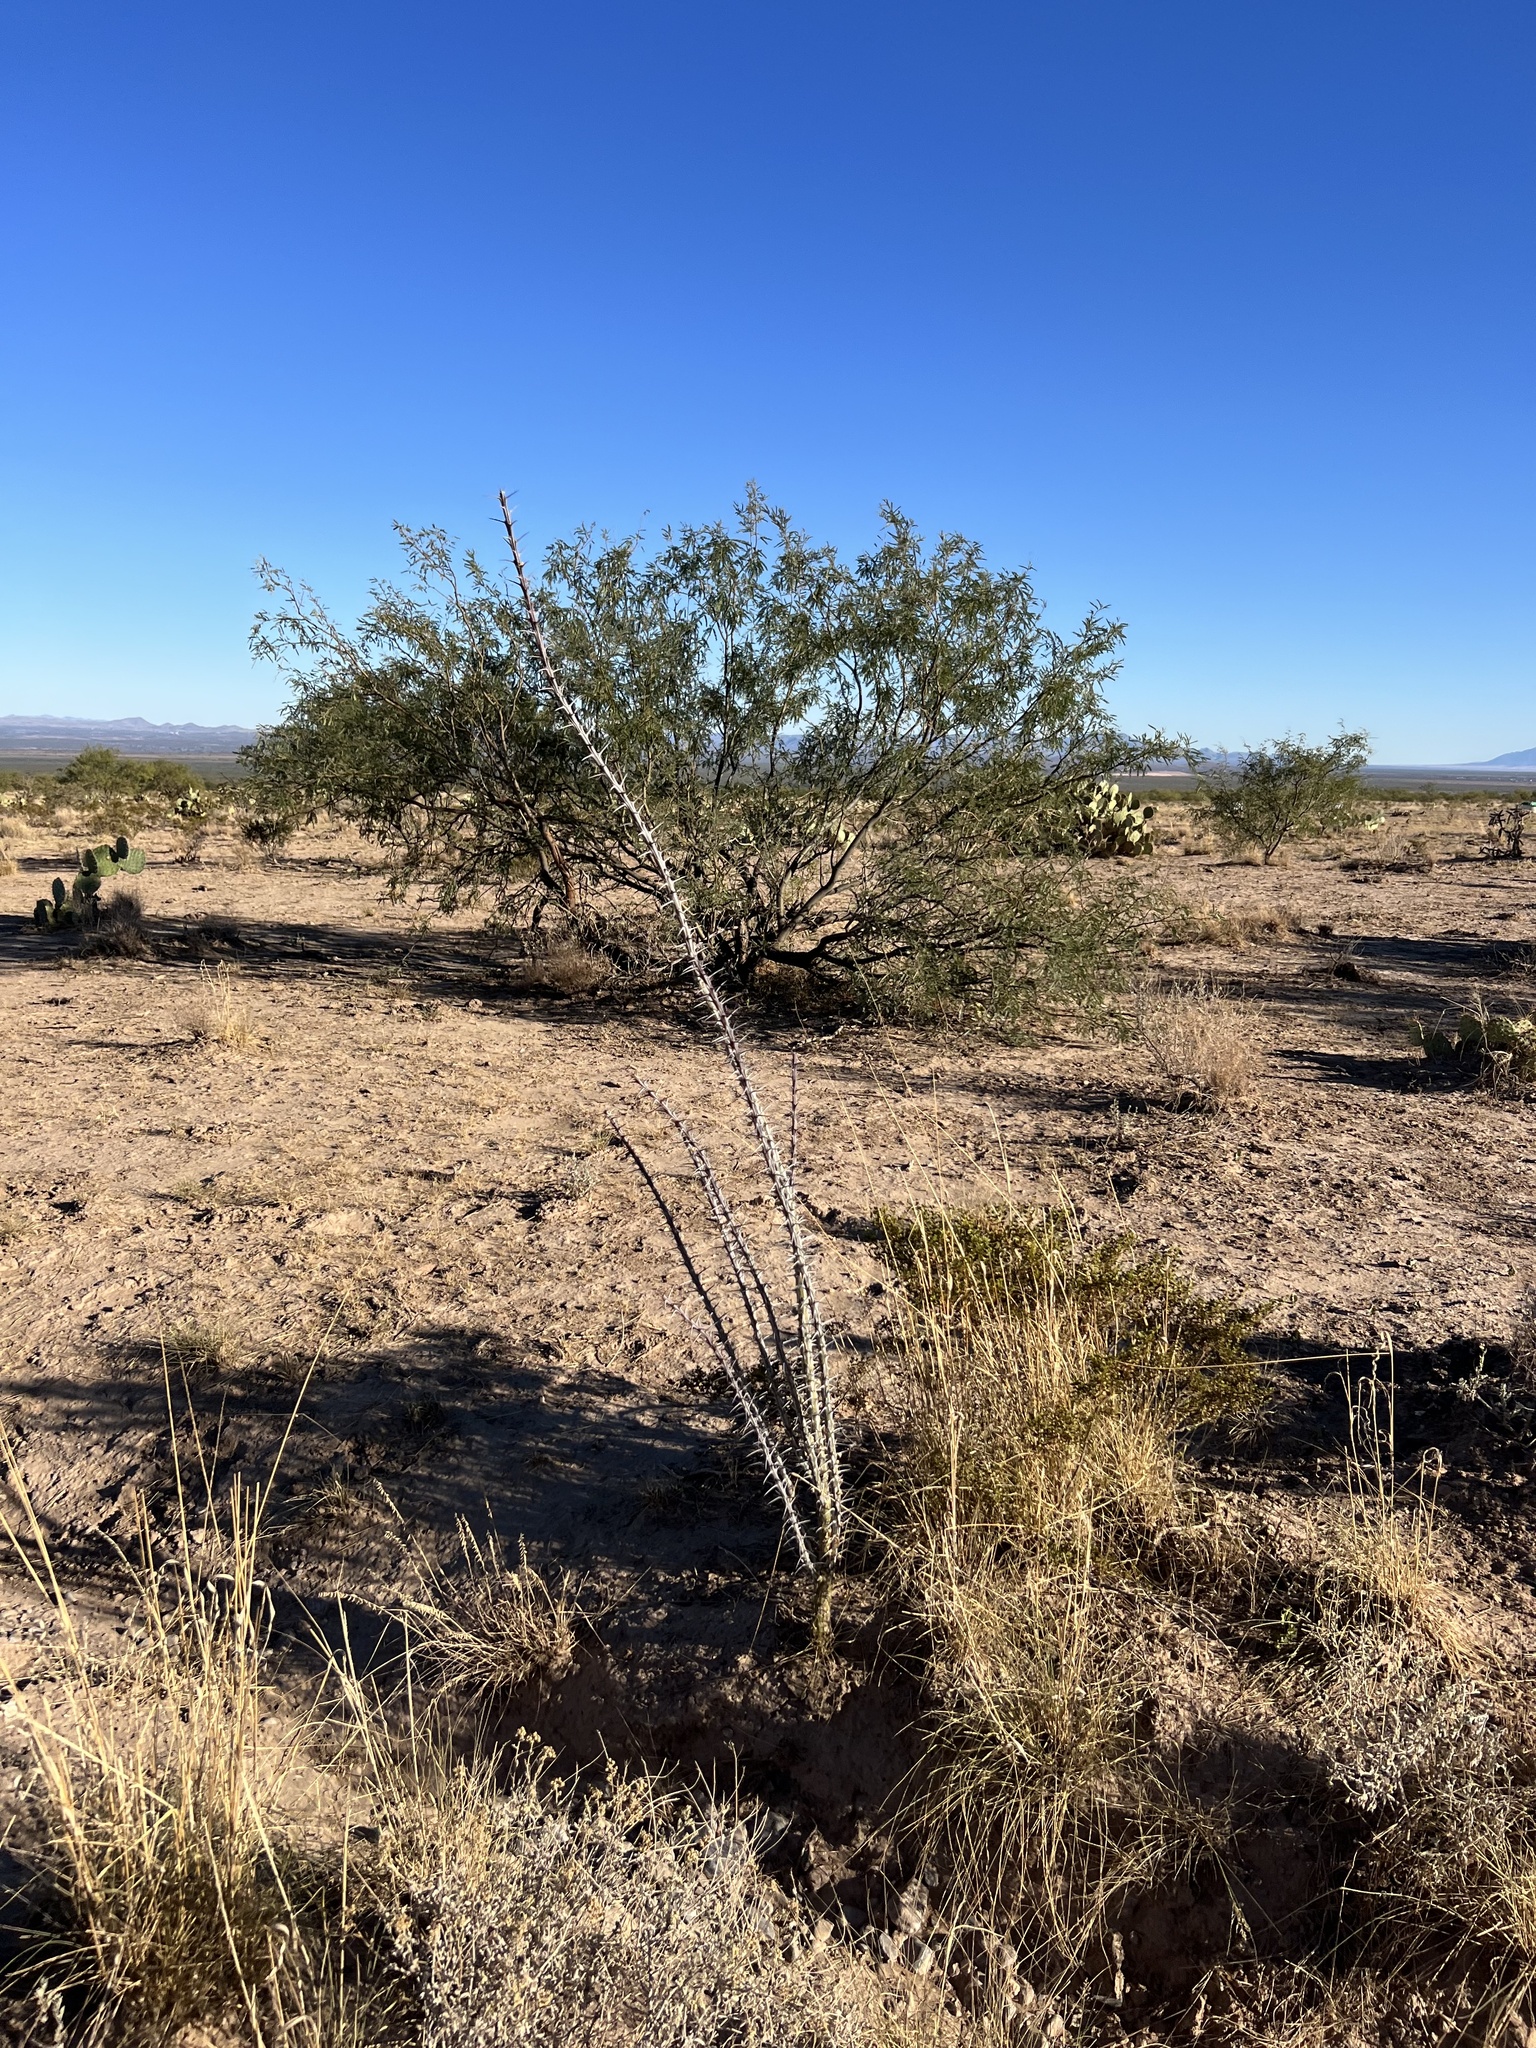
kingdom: Plantae
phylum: Tracheophyta
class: Magnoliopsida
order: Ericales
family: Fouquieriaceae
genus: Fouquieria
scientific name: Fouquieria splendens
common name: Vine-cactus
